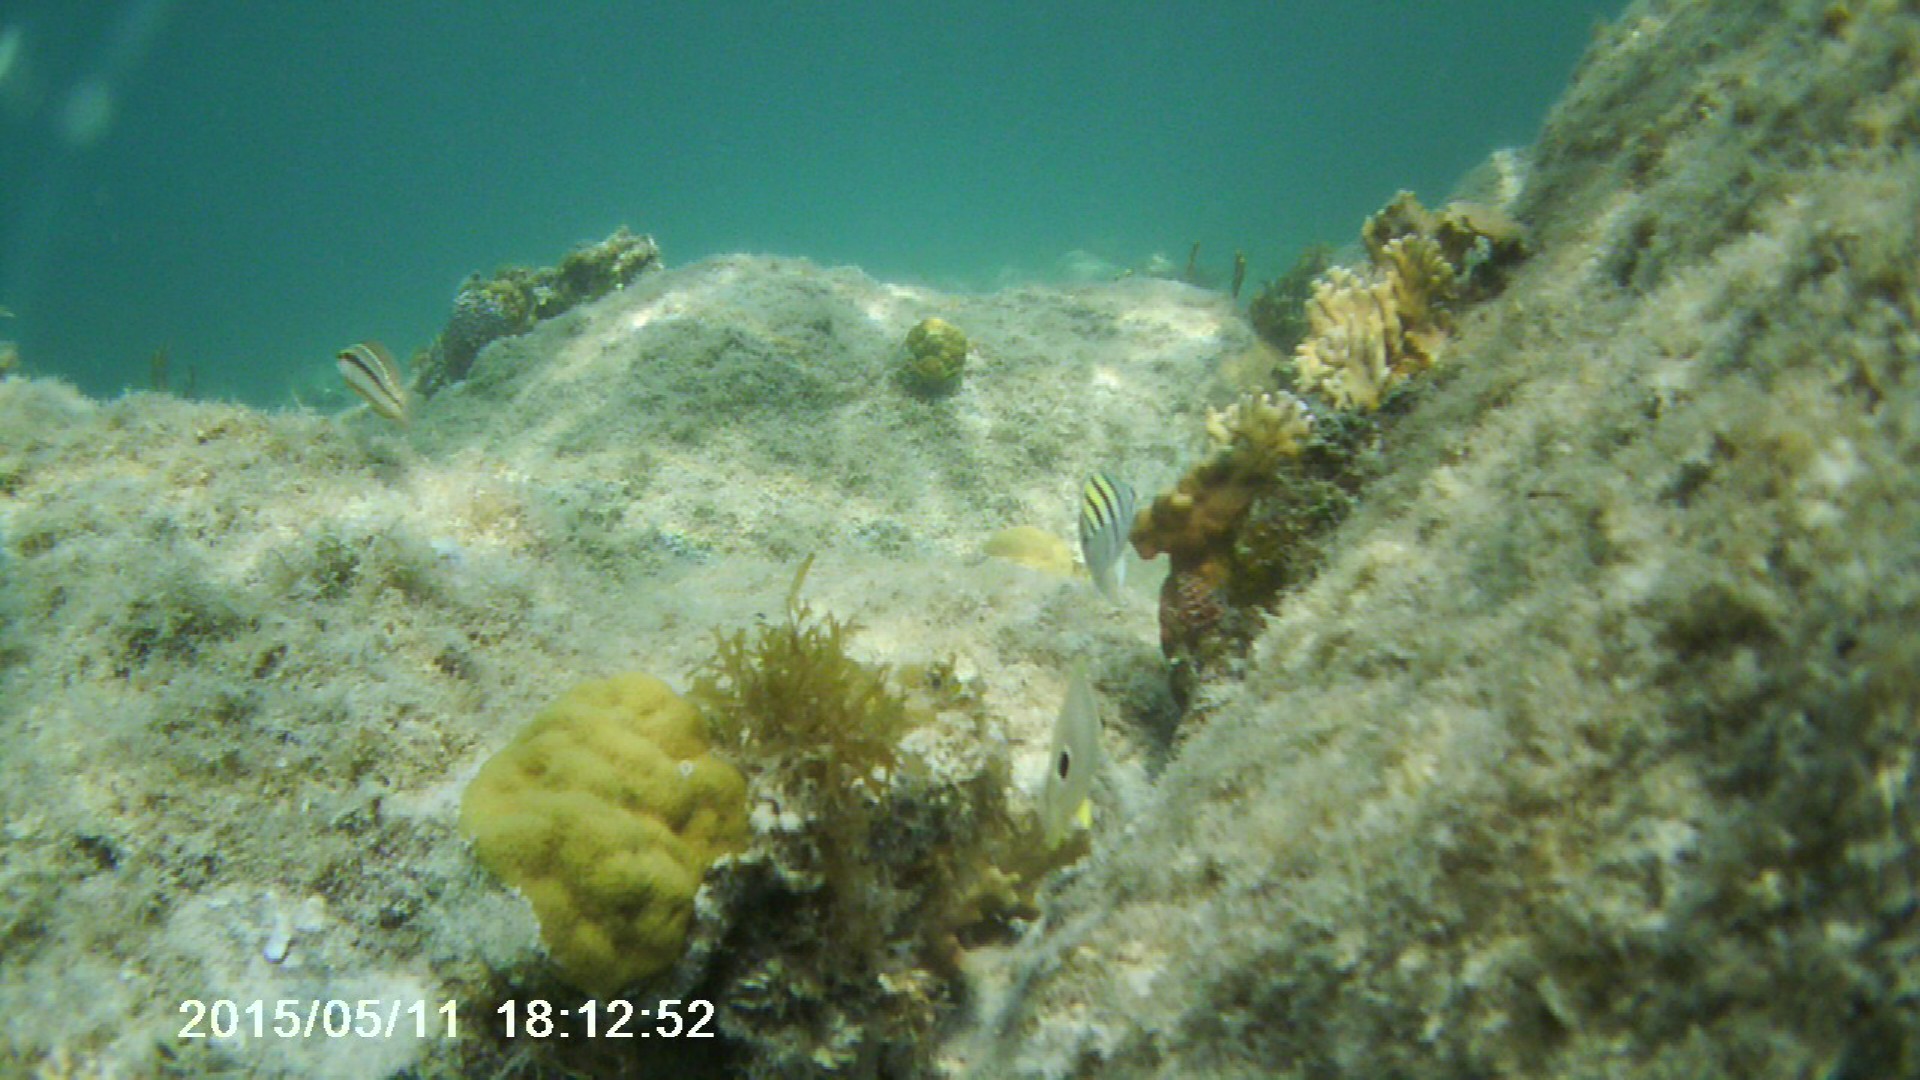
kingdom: Animalia
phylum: Chordata
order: Perciformes
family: Pomacentridae
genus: Abudefduf
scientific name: Abudefduf saxatilis
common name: Sergeant major
